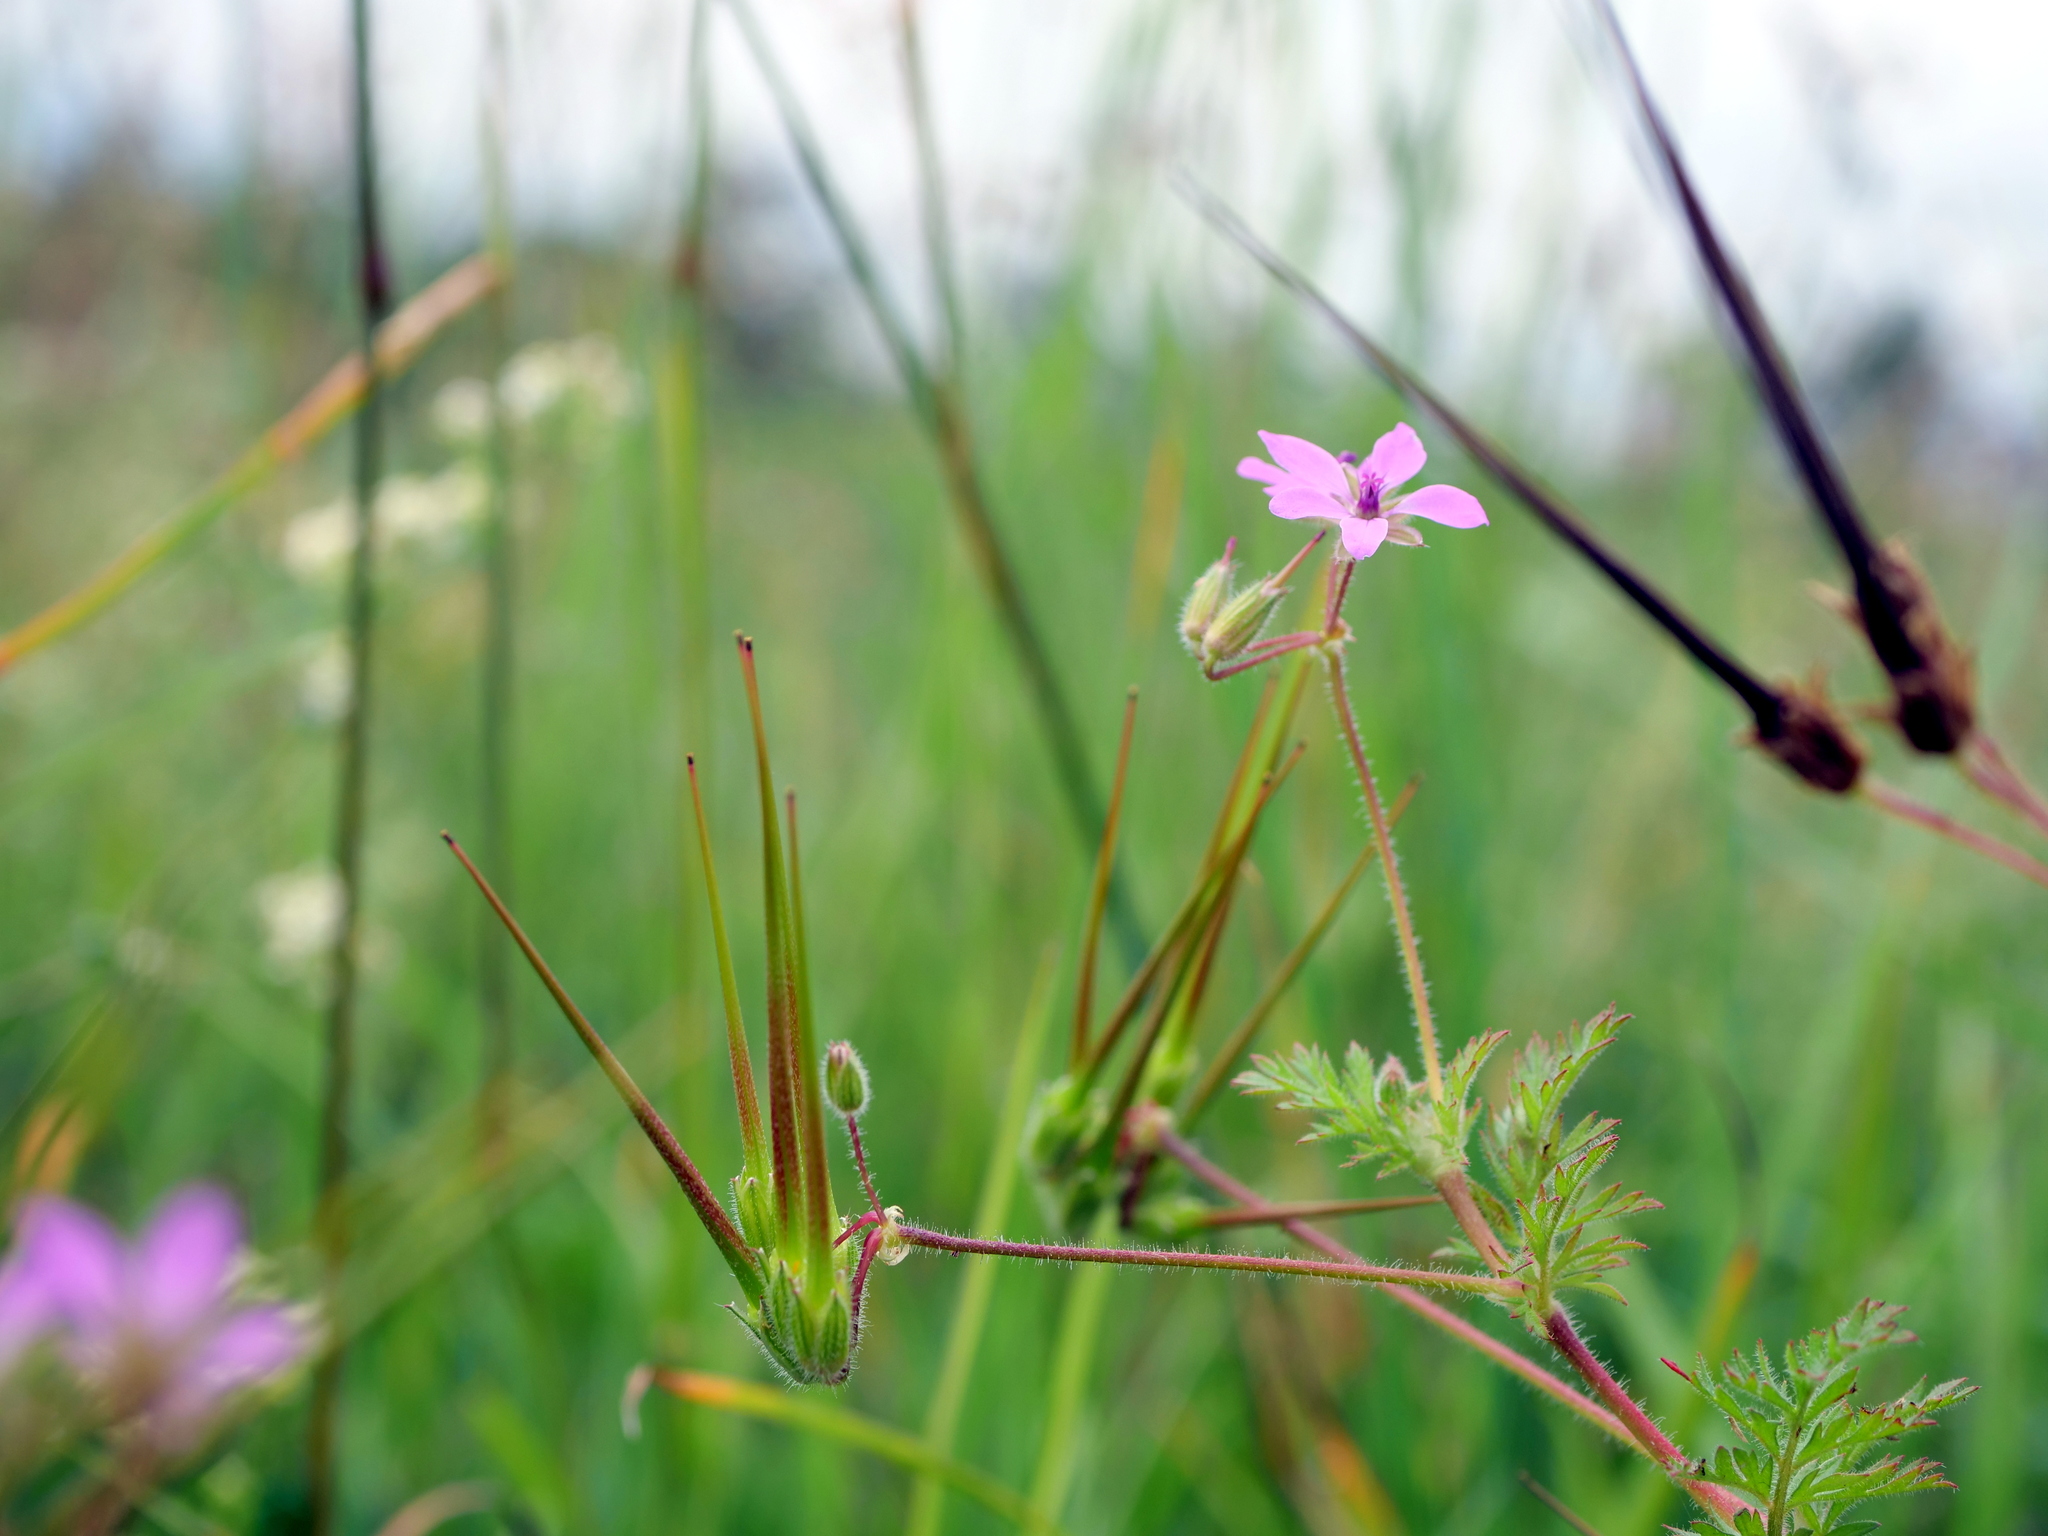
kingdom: Plantae
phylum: Tracheophyta
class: Magnoliopsida
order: Geraniales
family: Geraniaceae
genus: Erodium
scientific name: Erodium cicutarium
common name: Common stork's-bill
